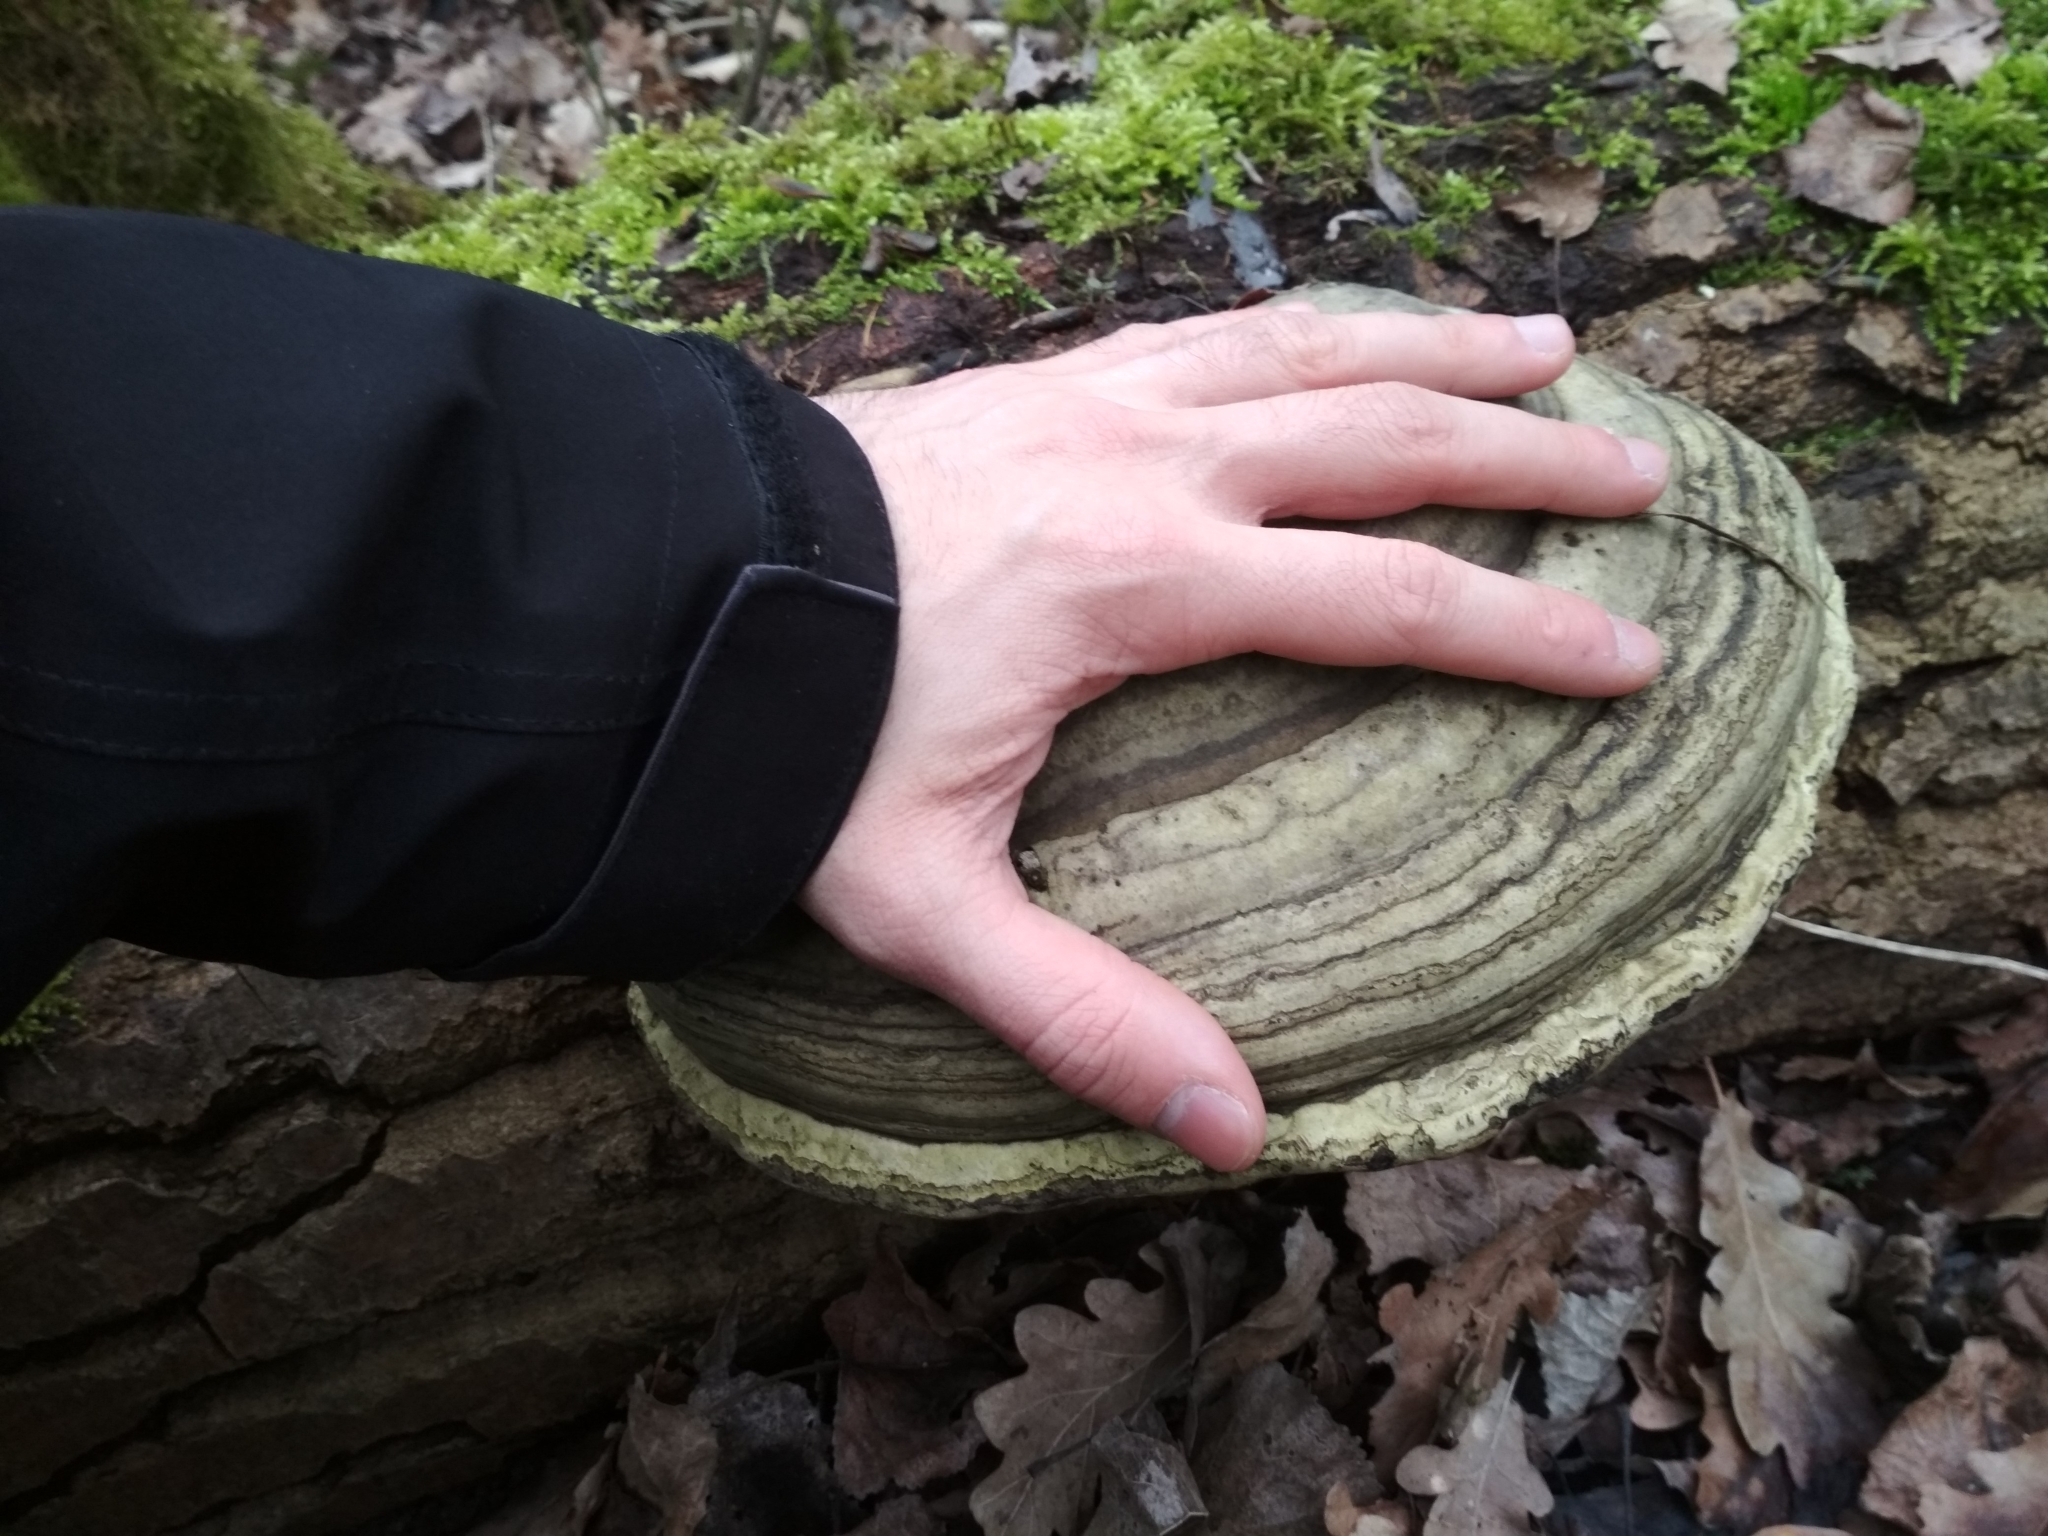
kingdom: Fungi
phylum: Basidiomycota
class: Agaricomycetes
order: Polyporales
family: Polyporaceae
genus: Fomes
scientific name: Fomes fomentarius
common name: Hoof fungus
